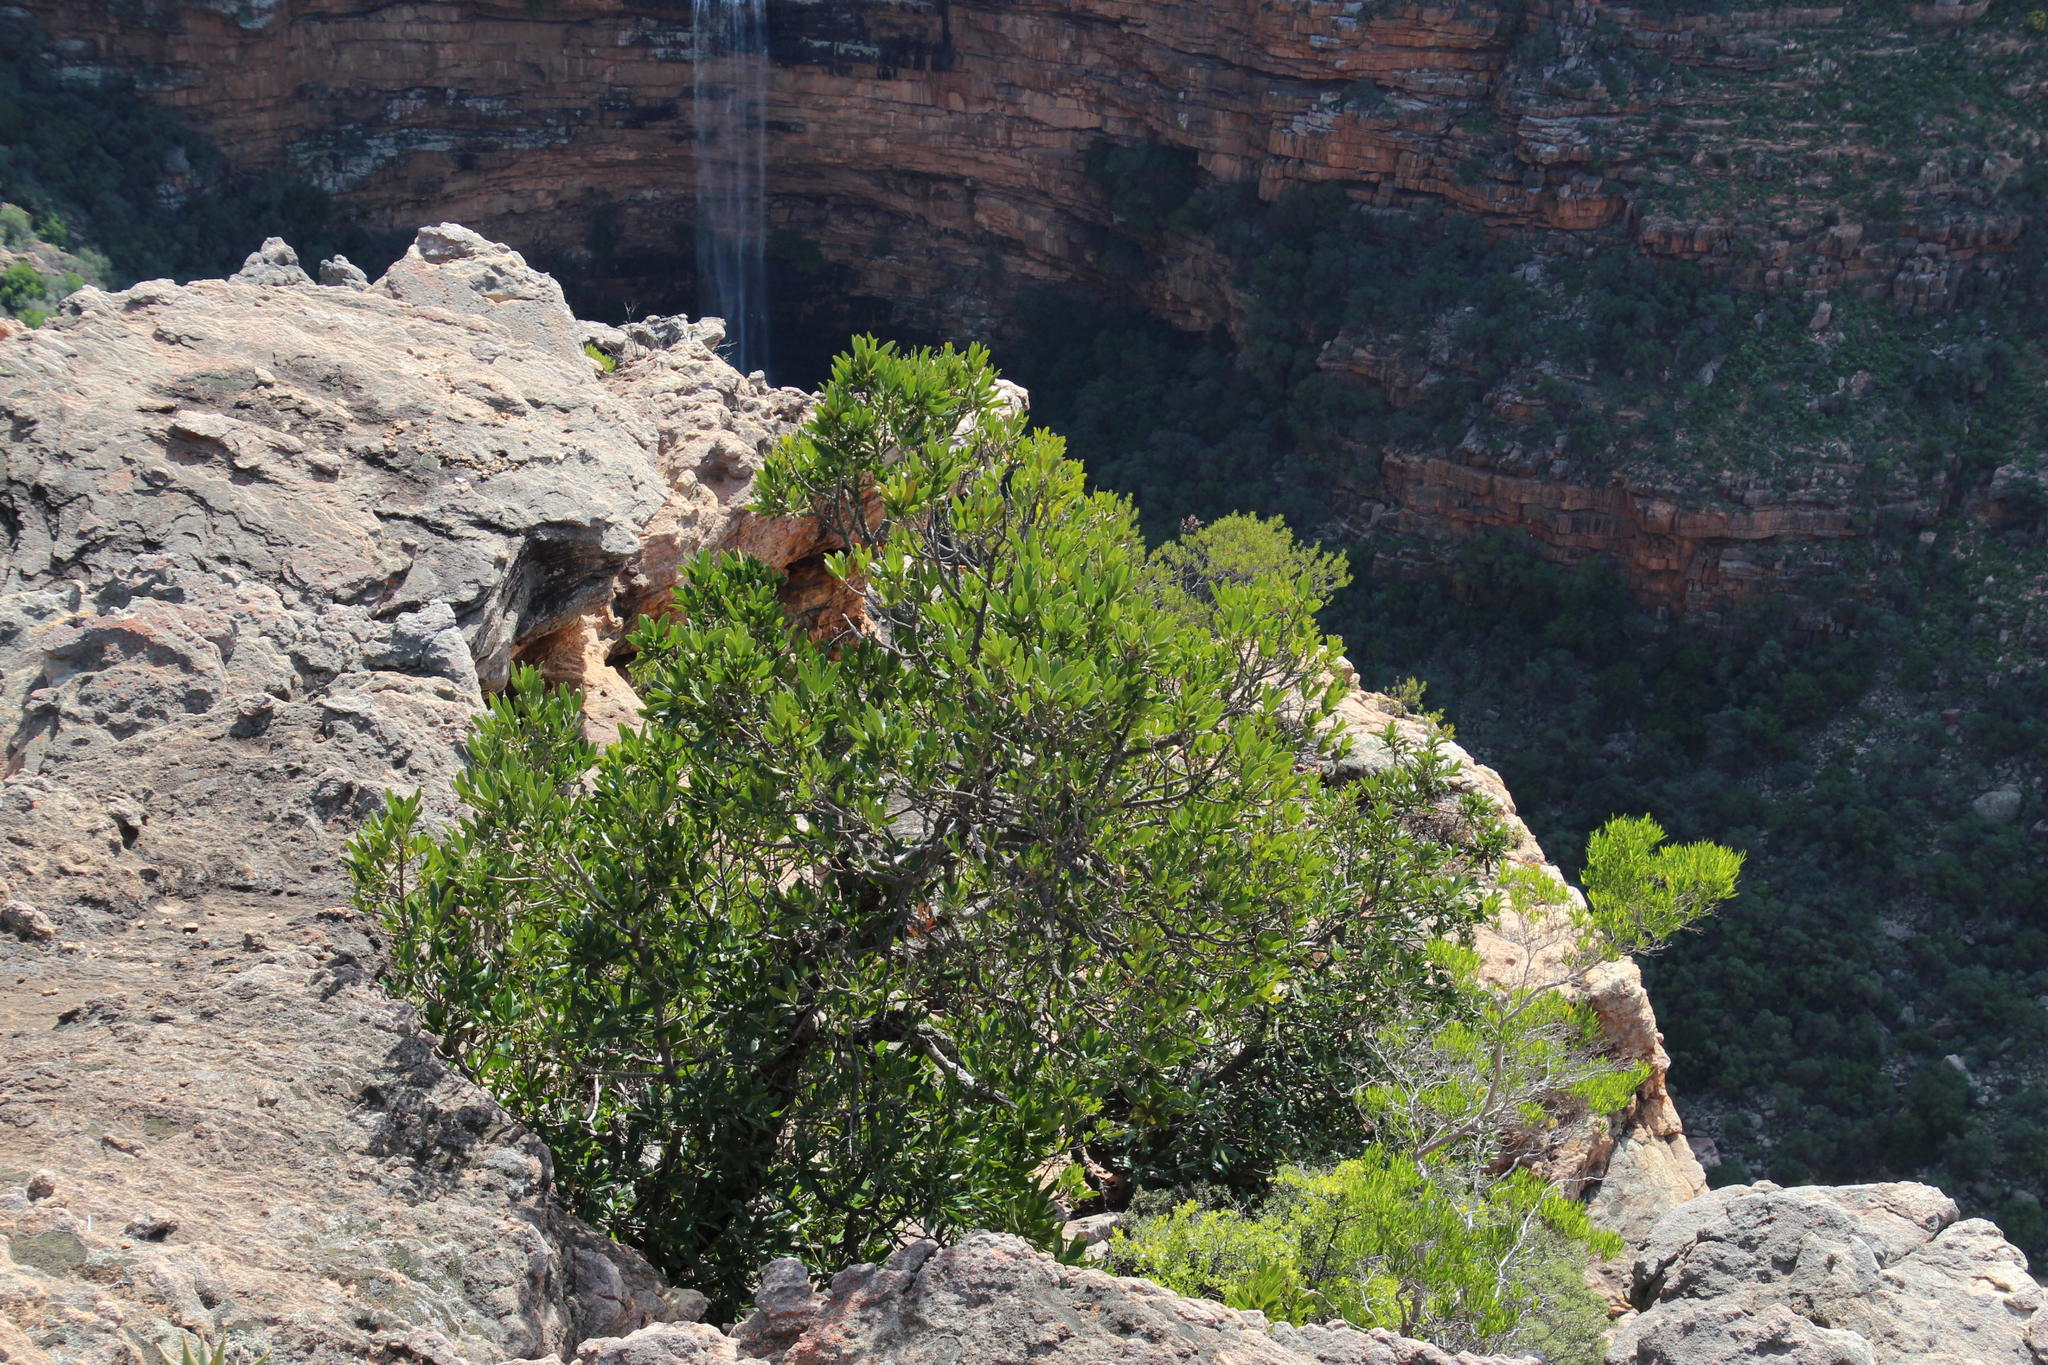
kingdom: Plantae
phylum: Tracheophyta
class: Magnoliopsida
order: Celastrales
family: Celastraceae
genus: Gymnosporia
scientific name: Gymnosporia laurina
